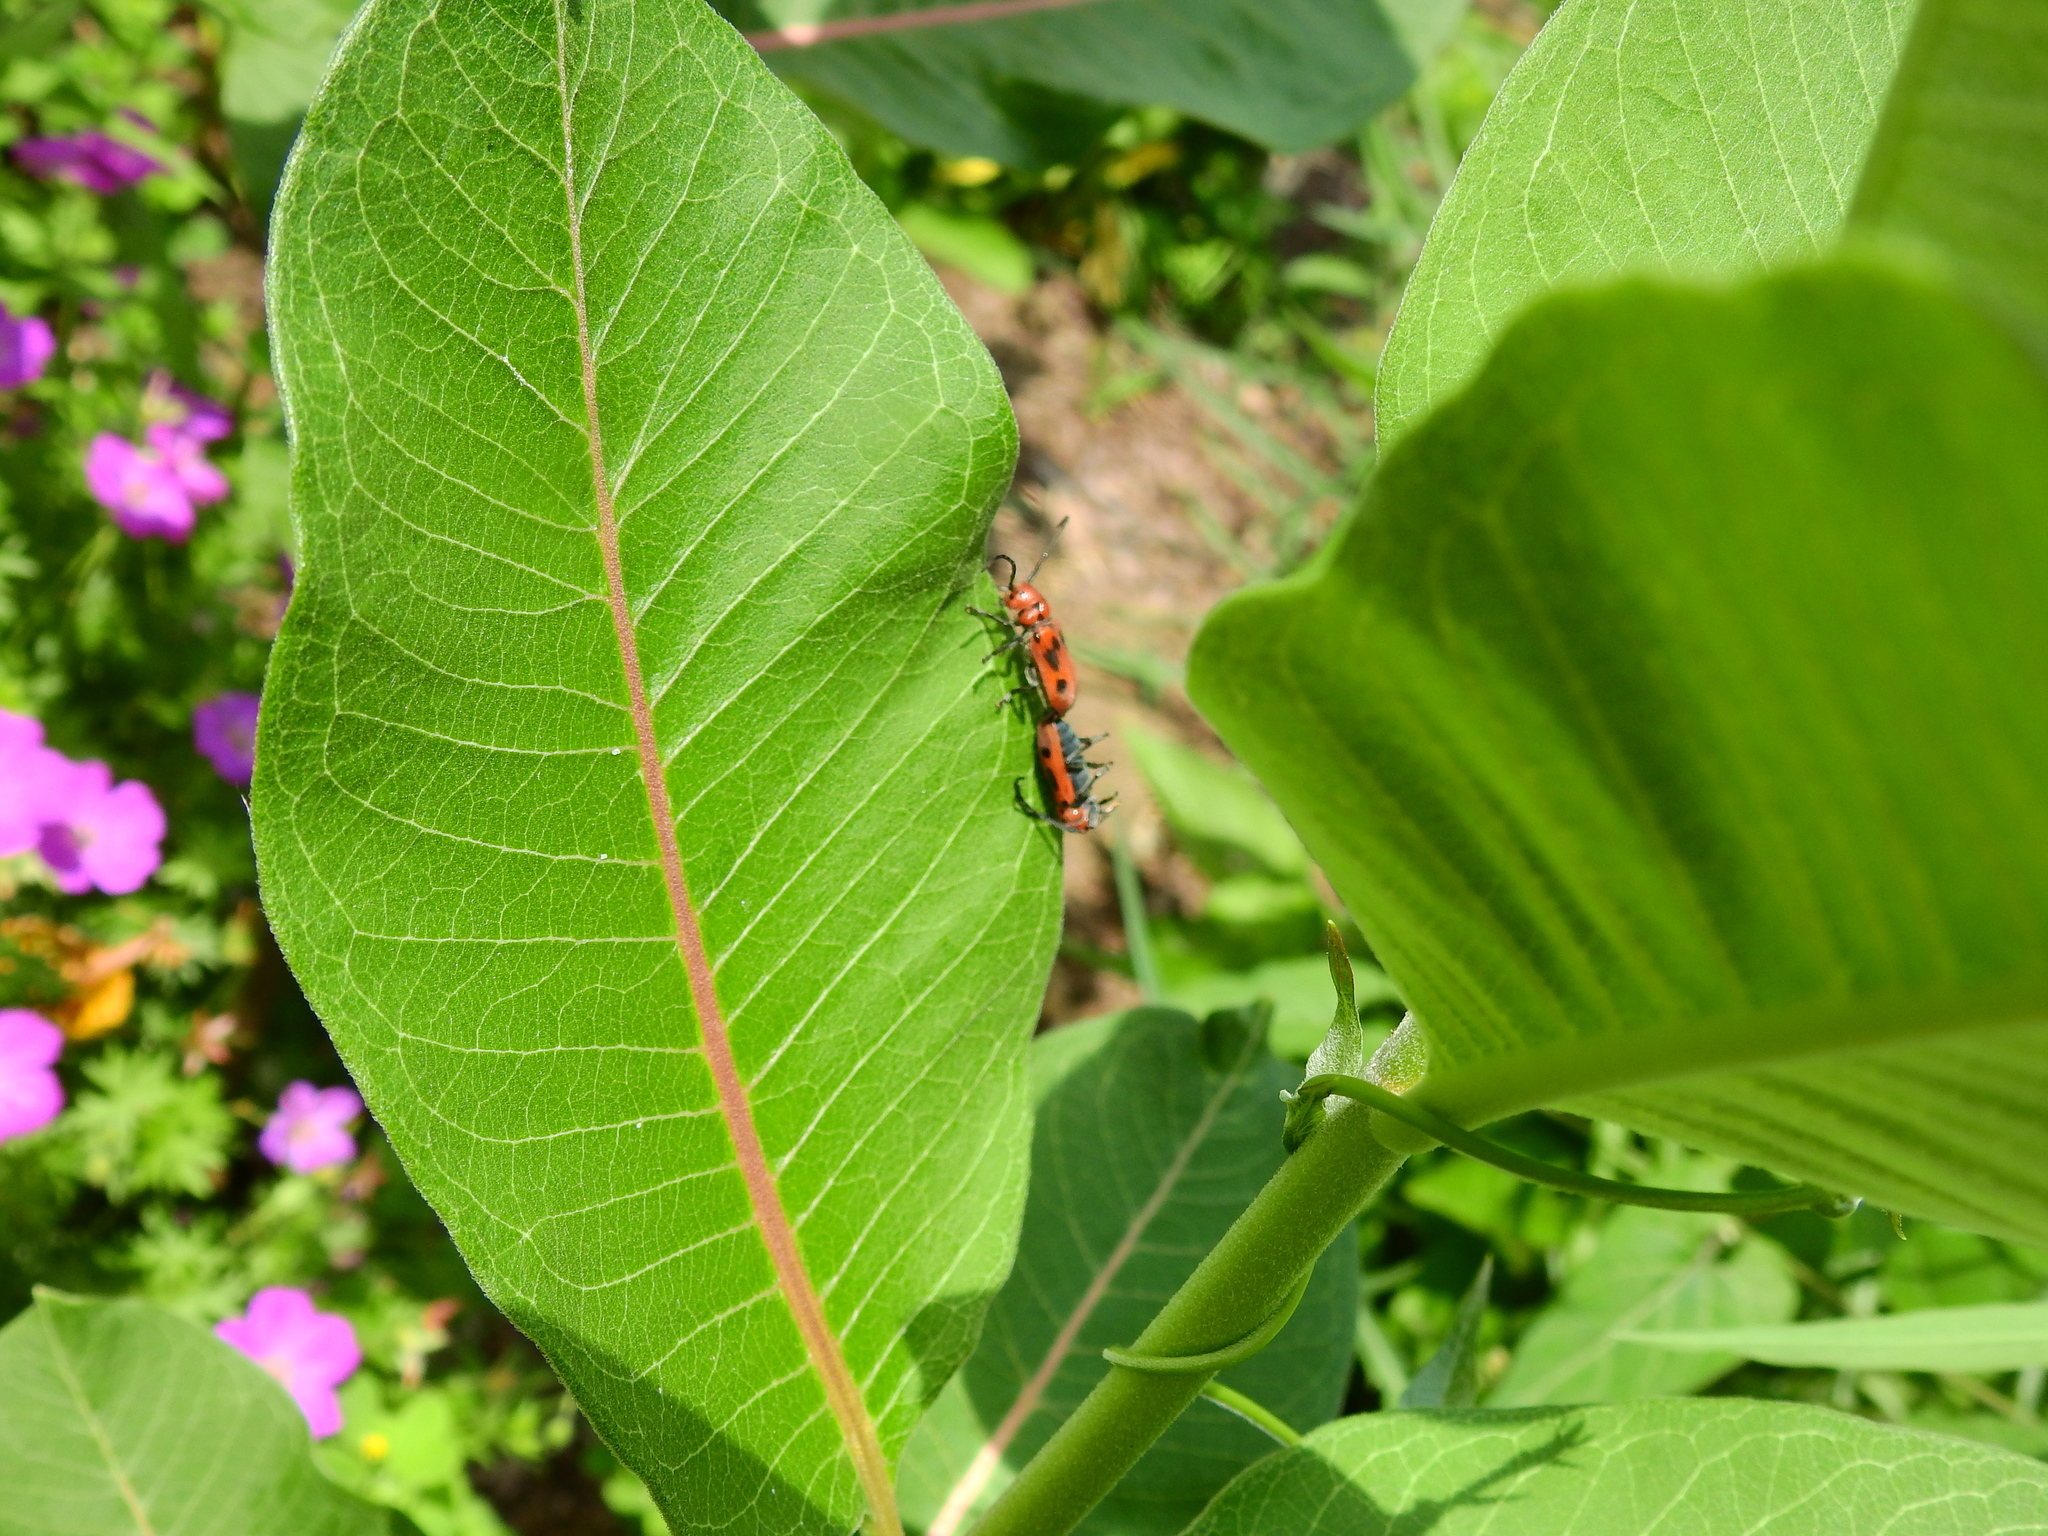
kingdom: Animalia
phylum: Arthropoda
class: Insecta
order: Coleoptera
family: Cerambycidae
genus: Tetraopes
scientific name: Tetraopes tetrophthalmus
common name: Red milkweed beetle
